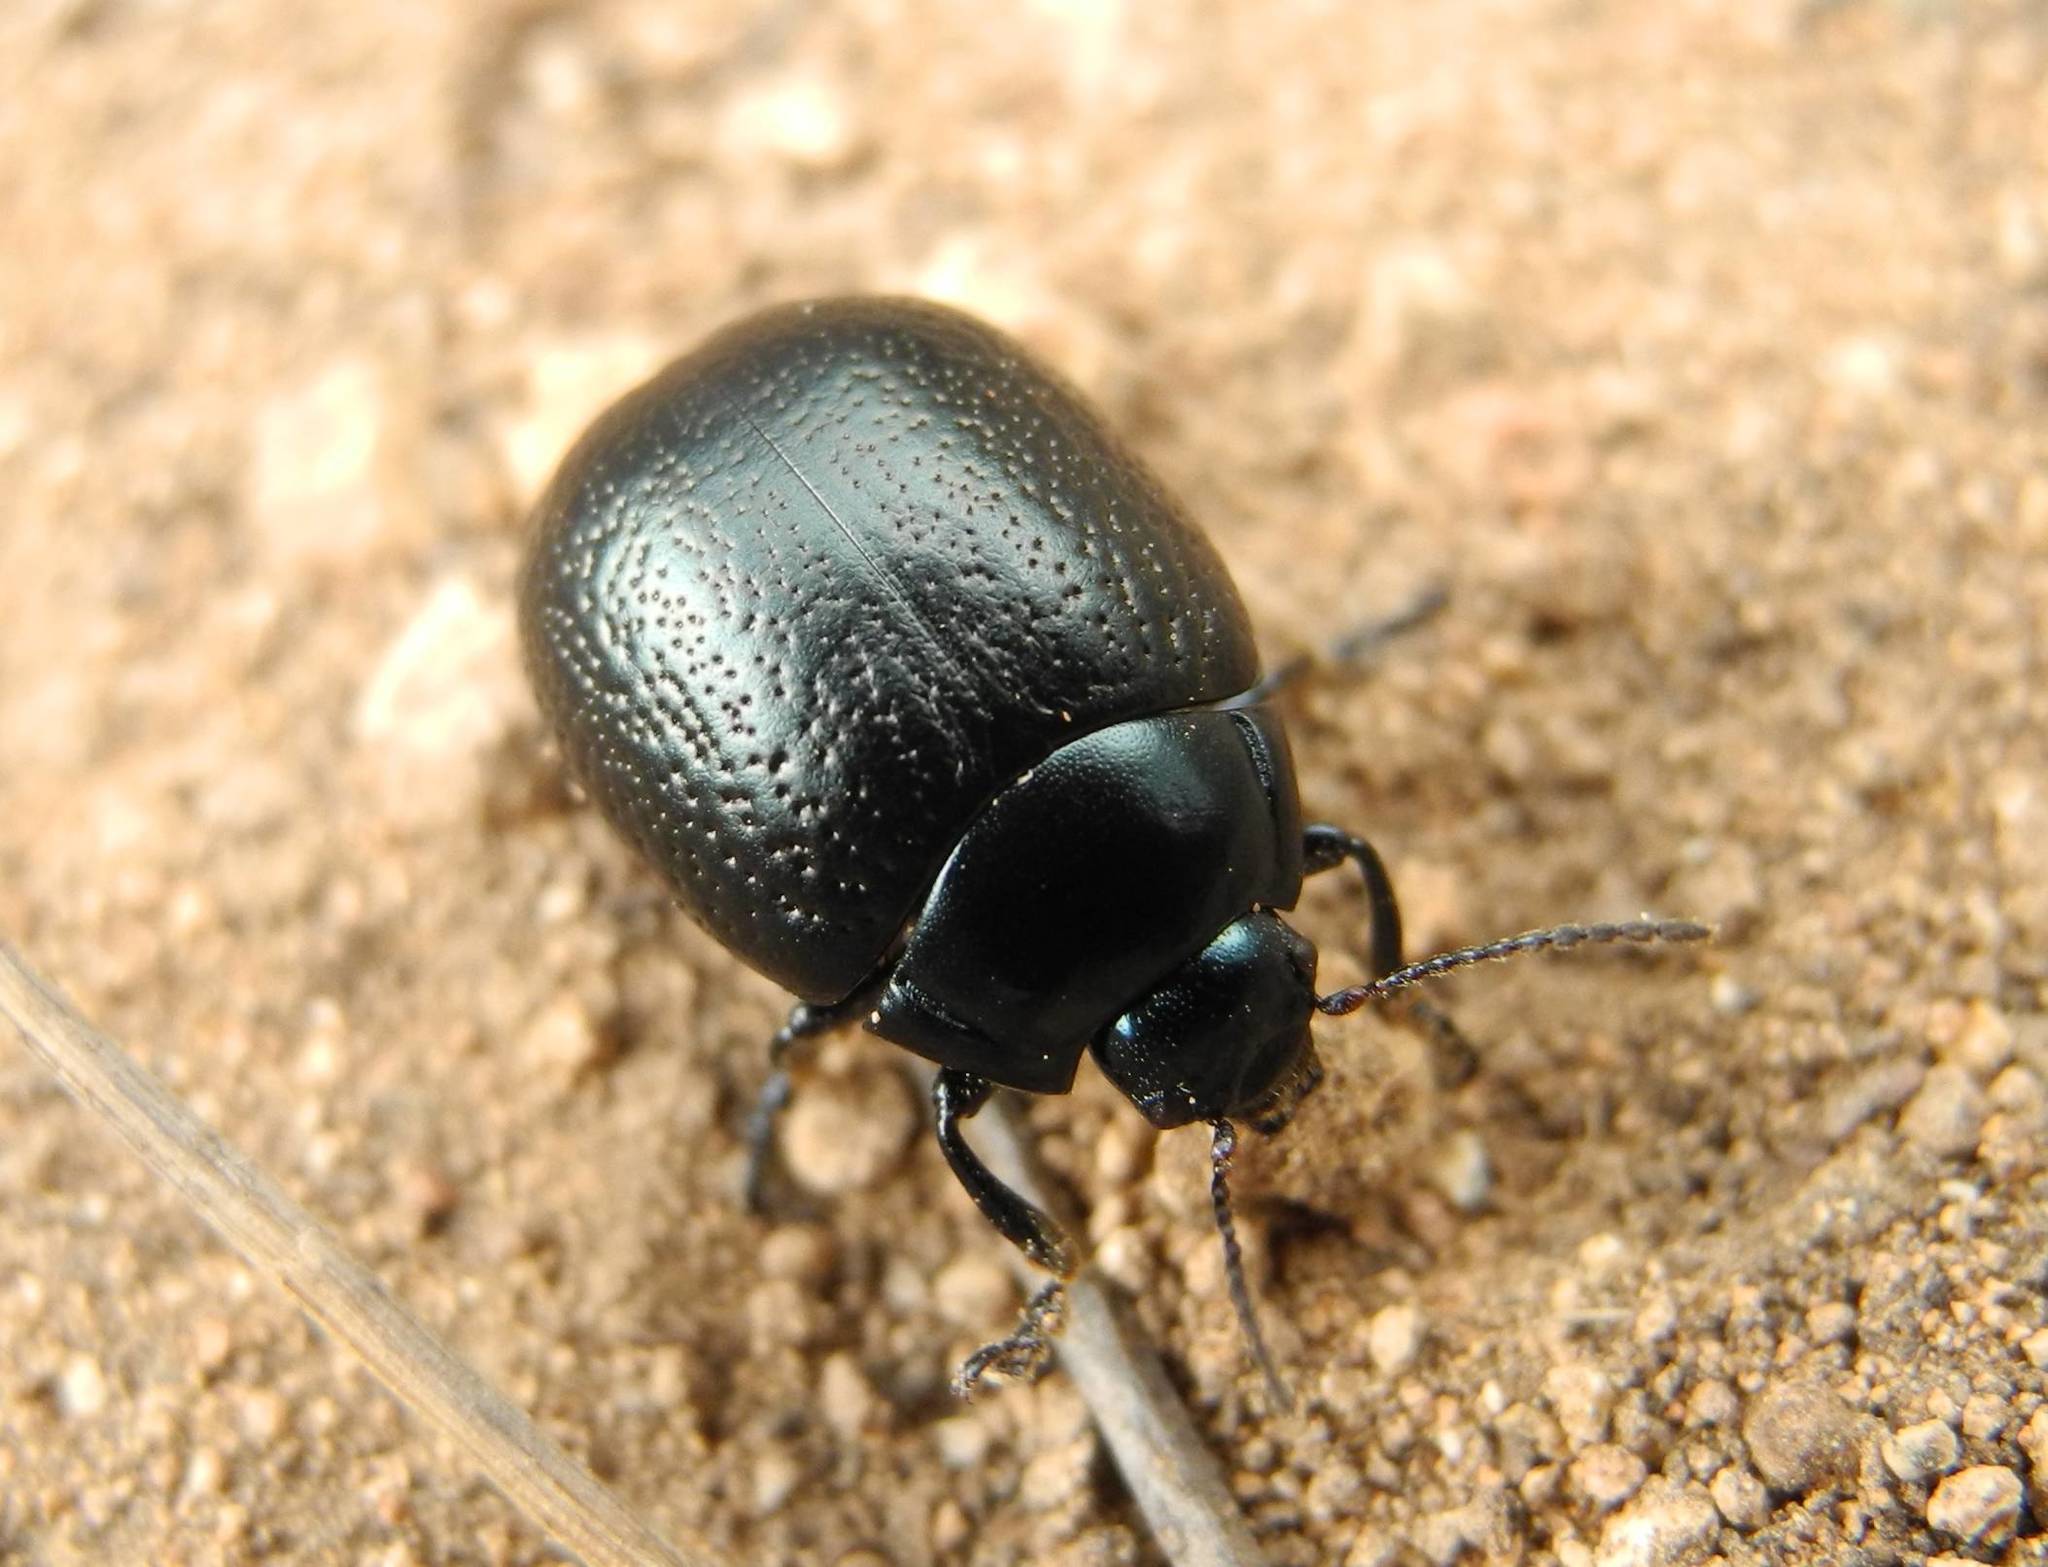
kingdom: Animalia
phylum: Arthropoda
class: Insecta
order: Coleoptera
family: Chrysomelidae
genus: Chrysolina
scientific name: Chrysolina haemoptera
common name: Plantain leaf beetle
